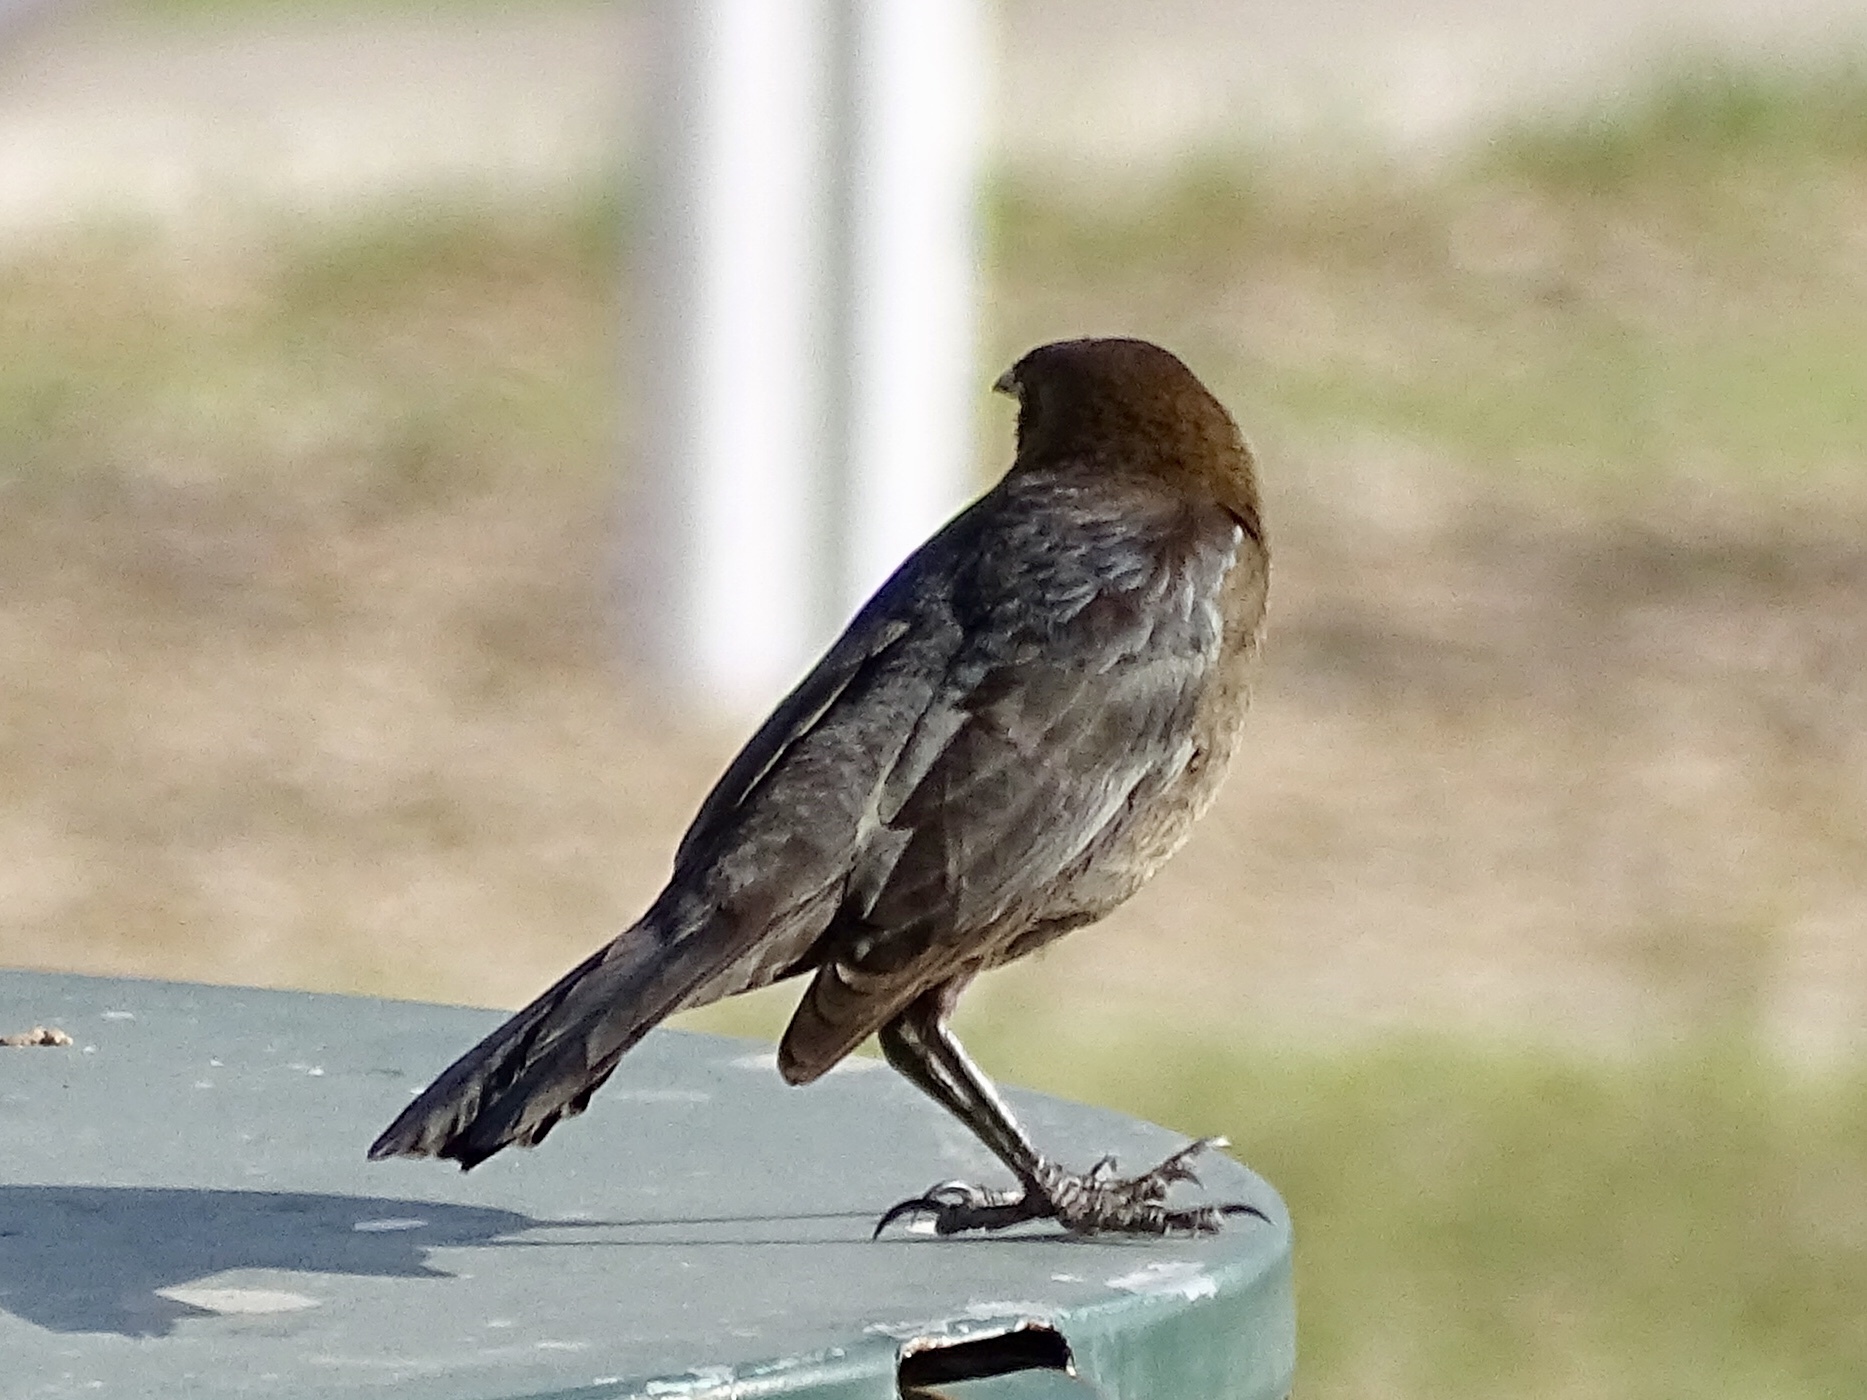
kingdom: Animalia
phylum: Chordata
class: Aves
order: Passeriformes
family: Icteridae
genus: Quiscalus
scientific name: Quiscalus mexicanus
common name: Great-tailed grackle
